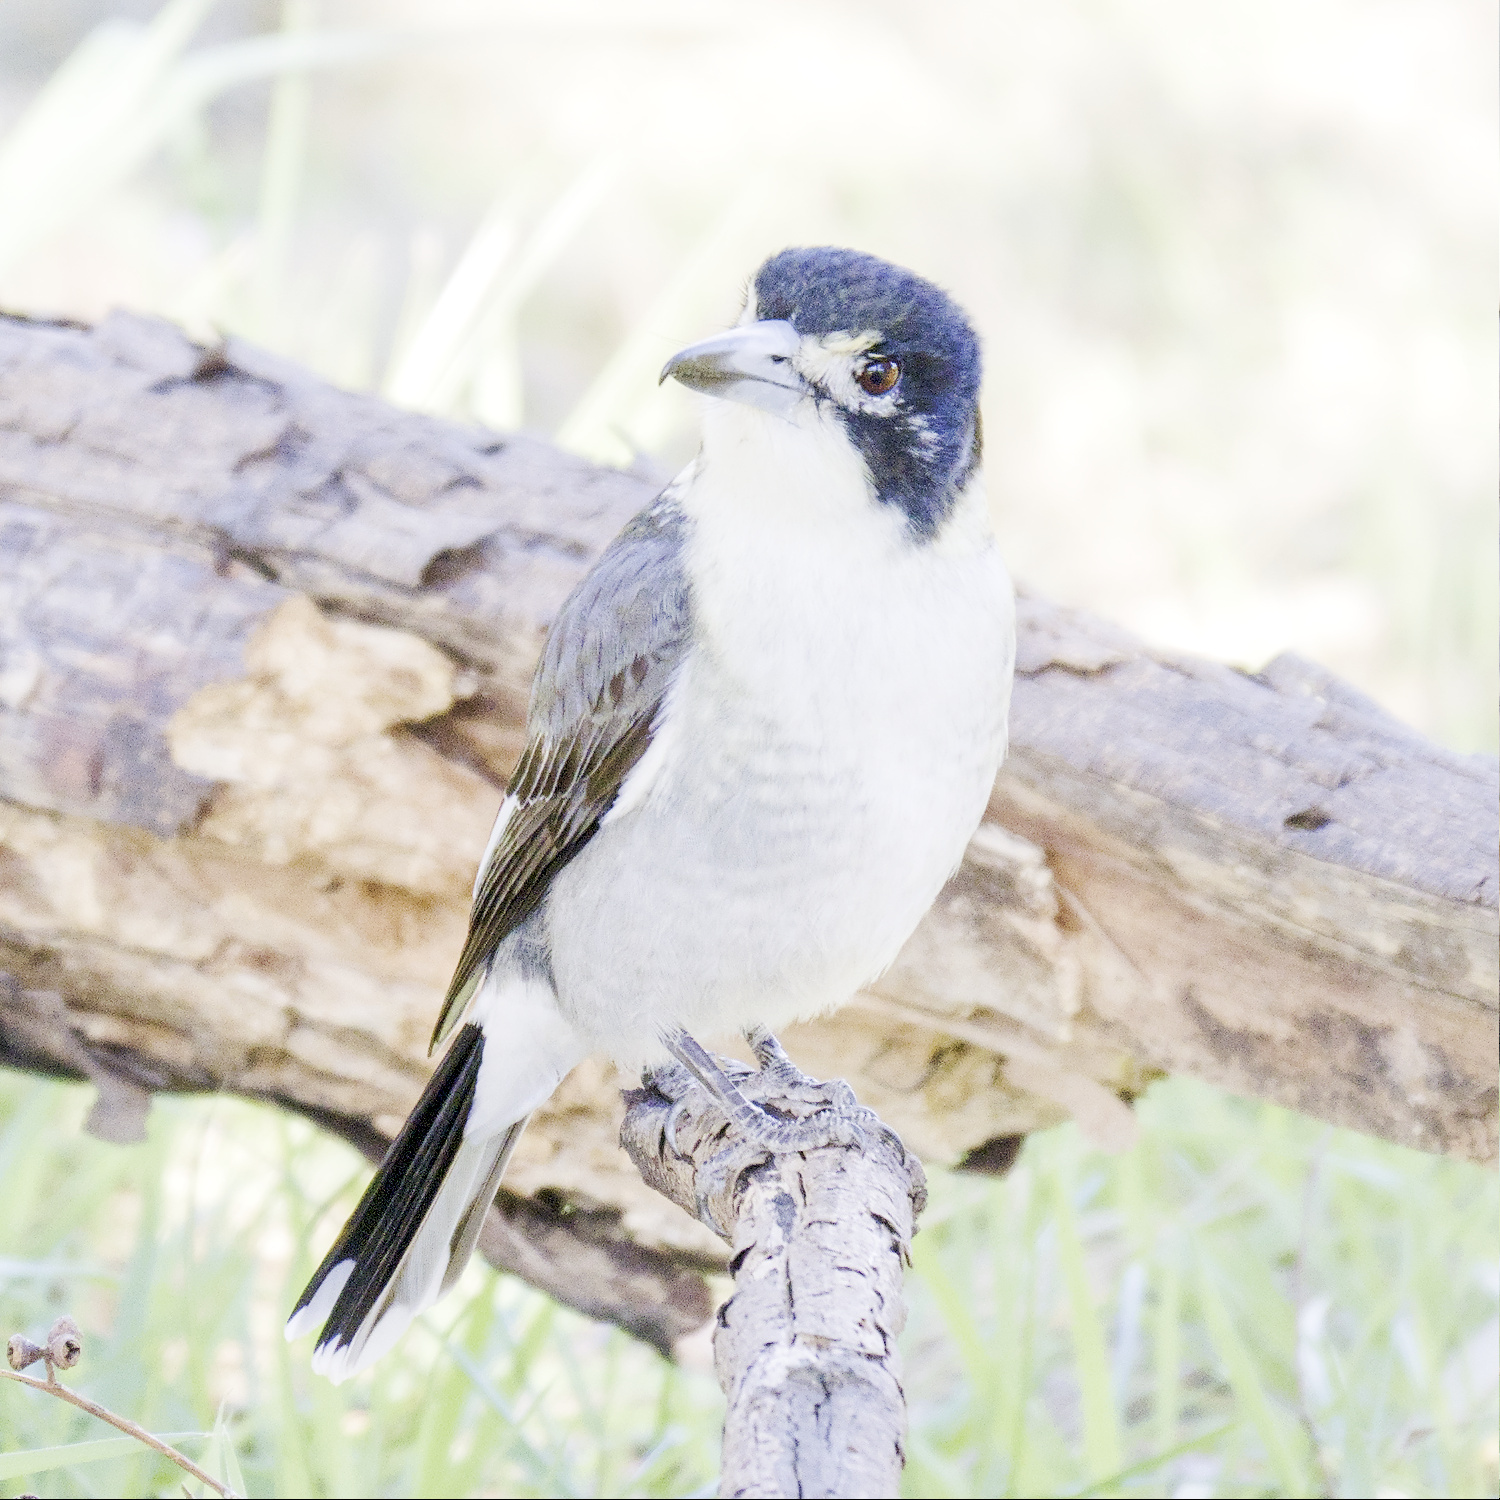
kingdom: Animalia
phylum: Chordata
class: Aves
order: Passeriformes
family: Cracticidae
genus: Cracticus
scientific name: Cracticus torquatus
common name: Grey butcherbird
